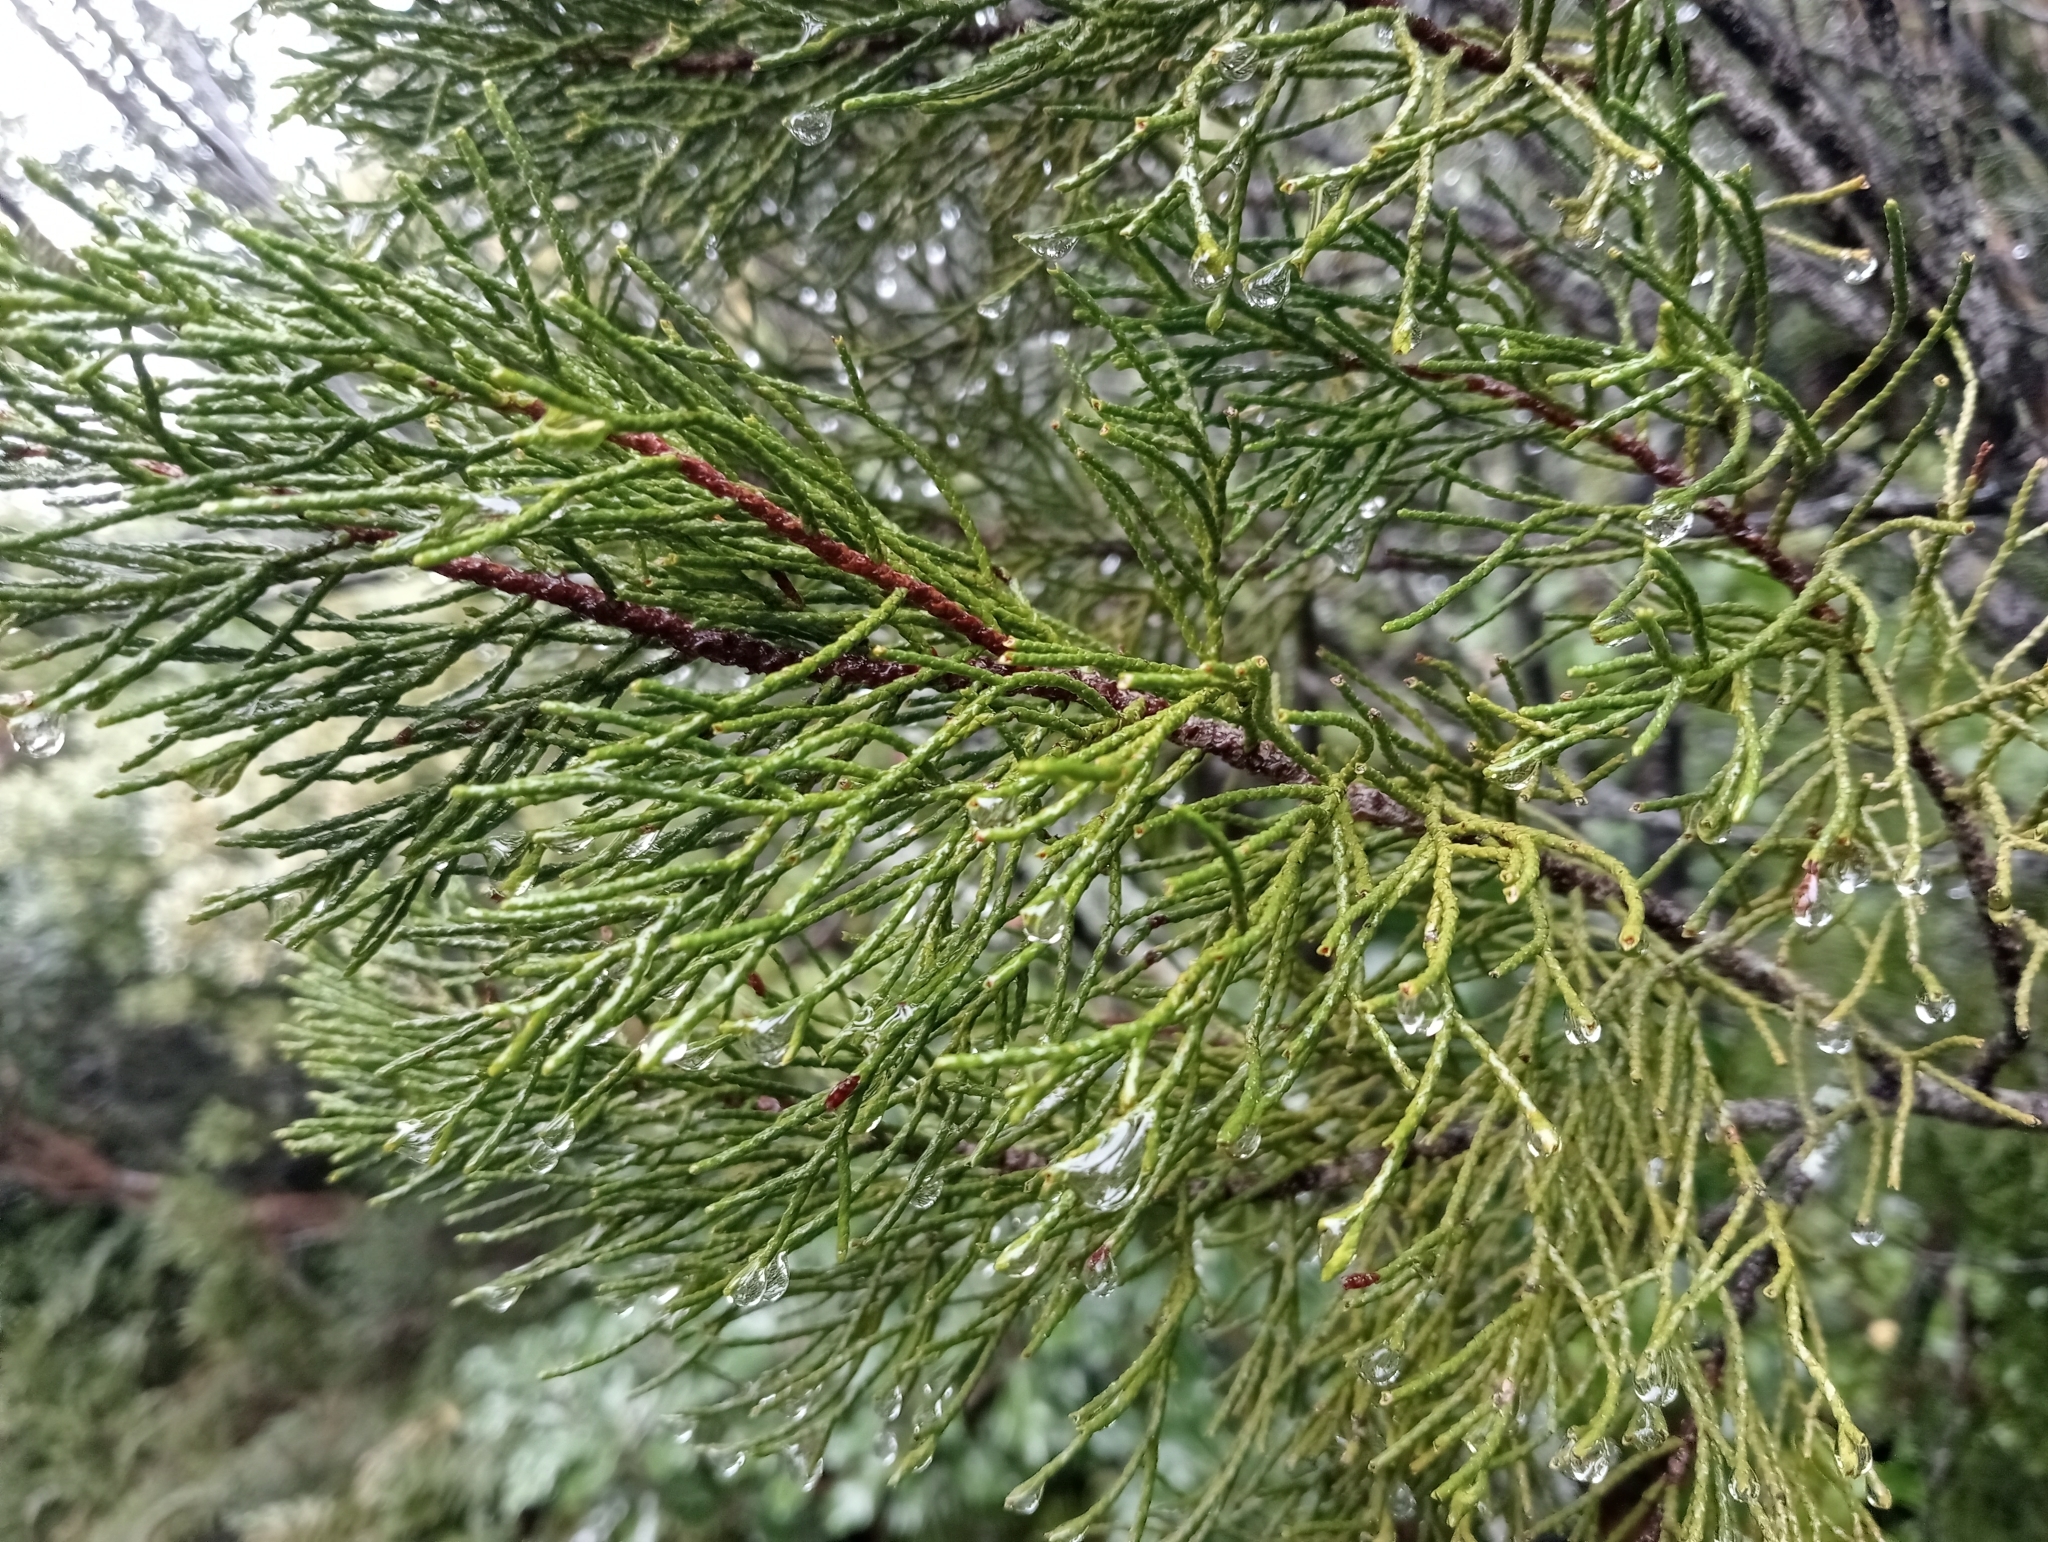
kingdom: Plantae
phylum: Tracheophyta
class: Pinopsida
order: Pinales
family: Podocarpaceae
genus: Halocarpus
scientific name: Halocarpus bidwillii
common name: Bog pine
